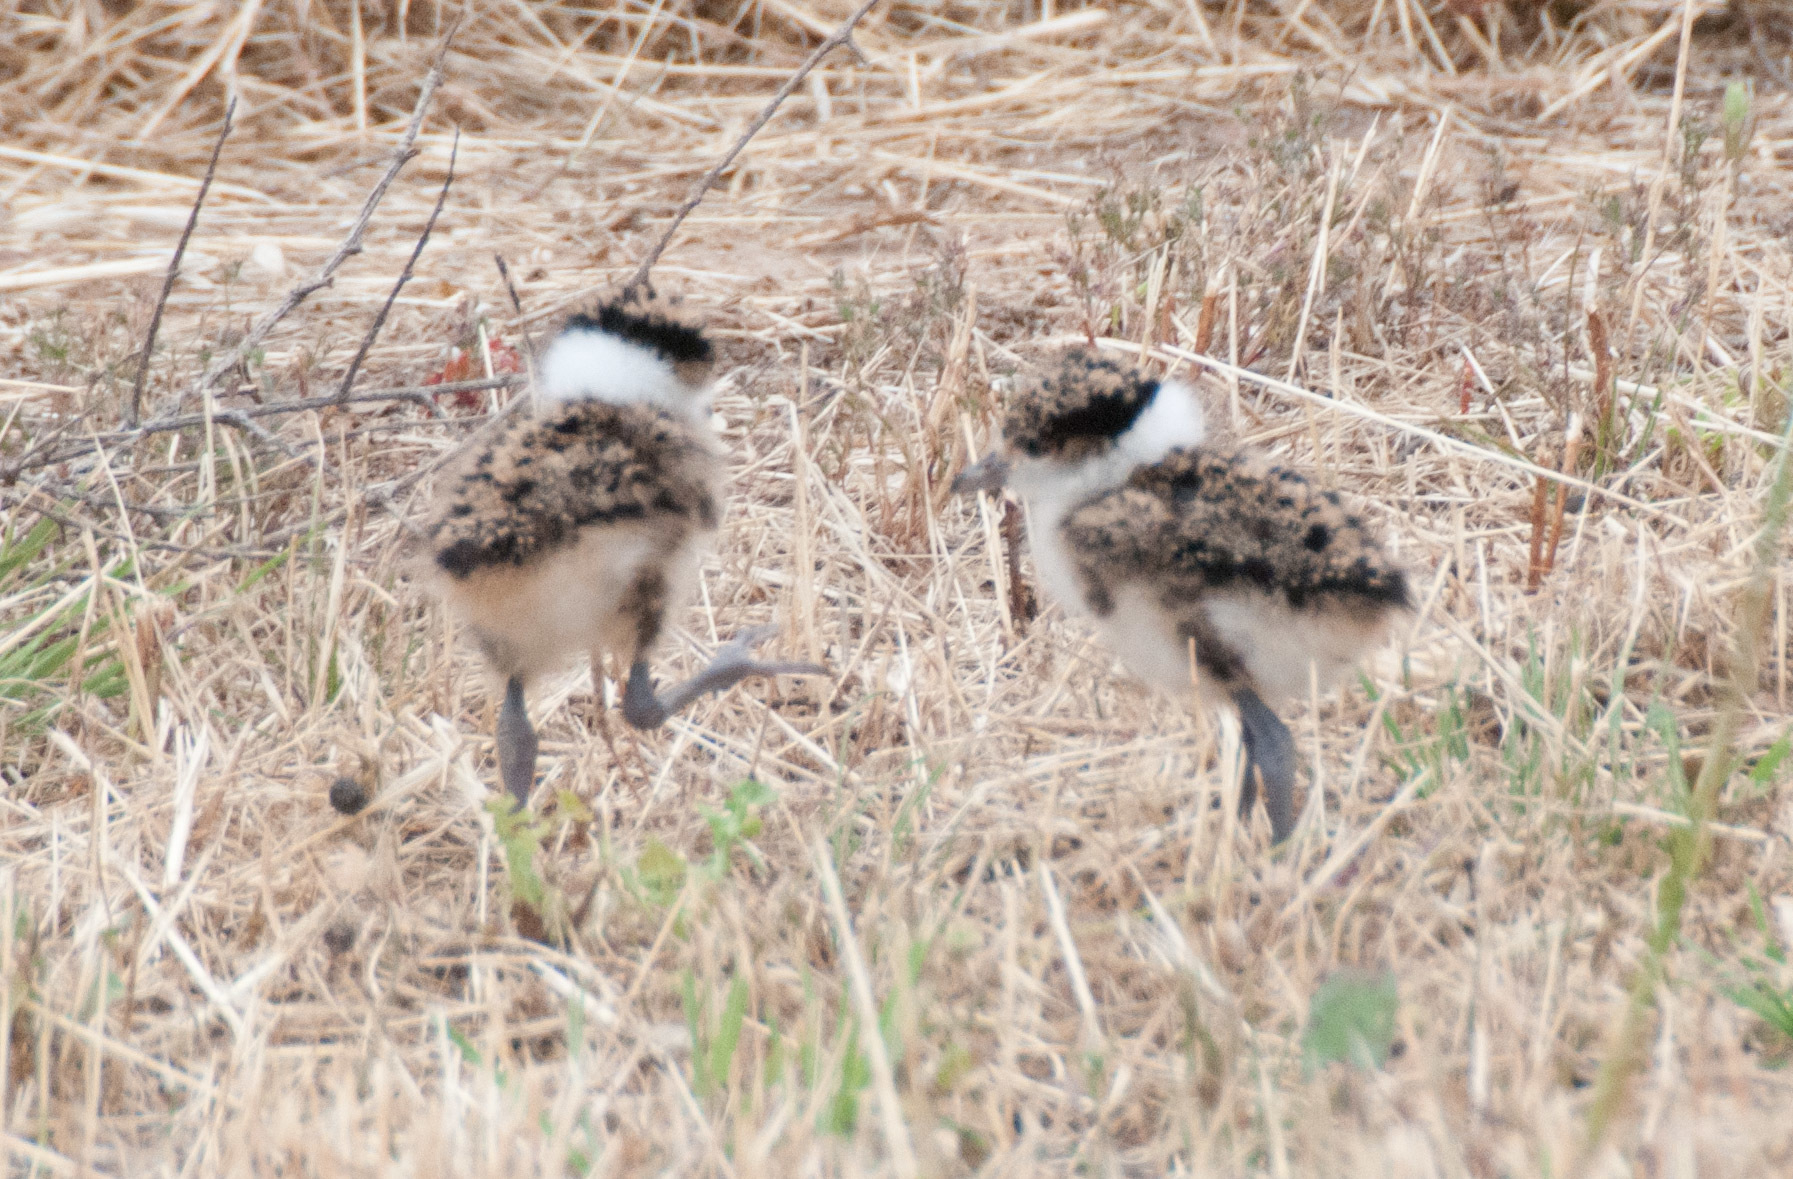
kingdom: Animalia
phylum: Chordata
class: Aves
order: Charadriiformes
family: Charadriidae
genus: Vanellus
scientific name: Vanellus miles
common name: Masked lapwing
